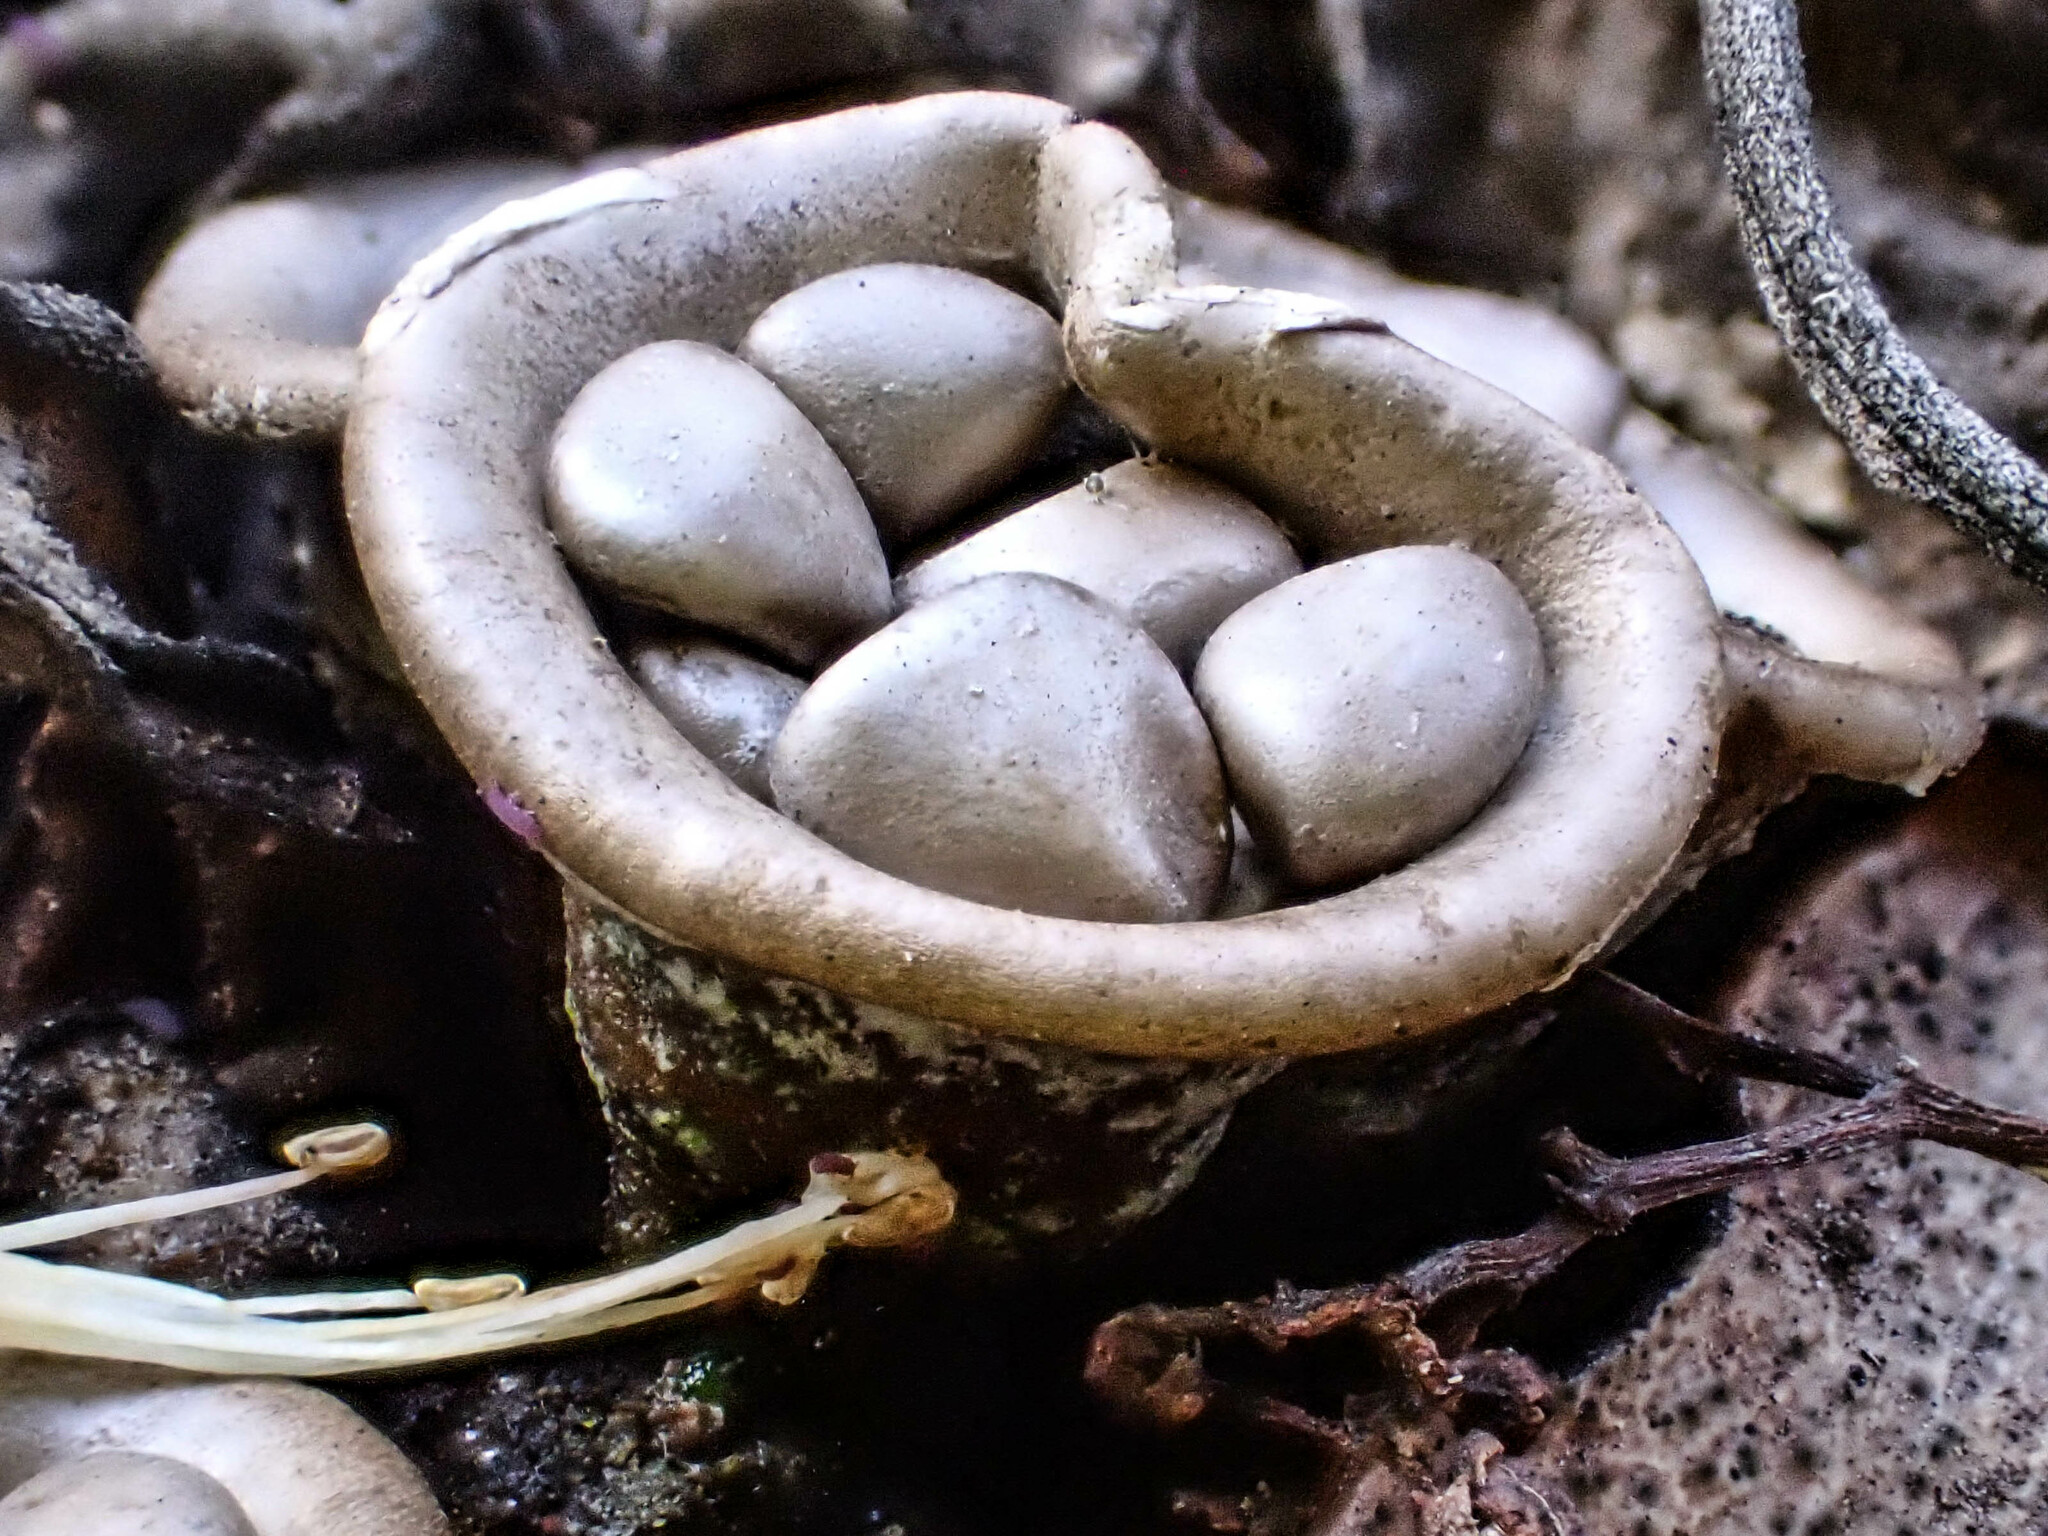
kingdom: Fungi
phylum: Basidiomycota
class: Agaricomycetes
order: Agaricales
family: Agaricaceae
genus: Cyathus
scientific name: Cyathus olla
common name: Field bird's nest
